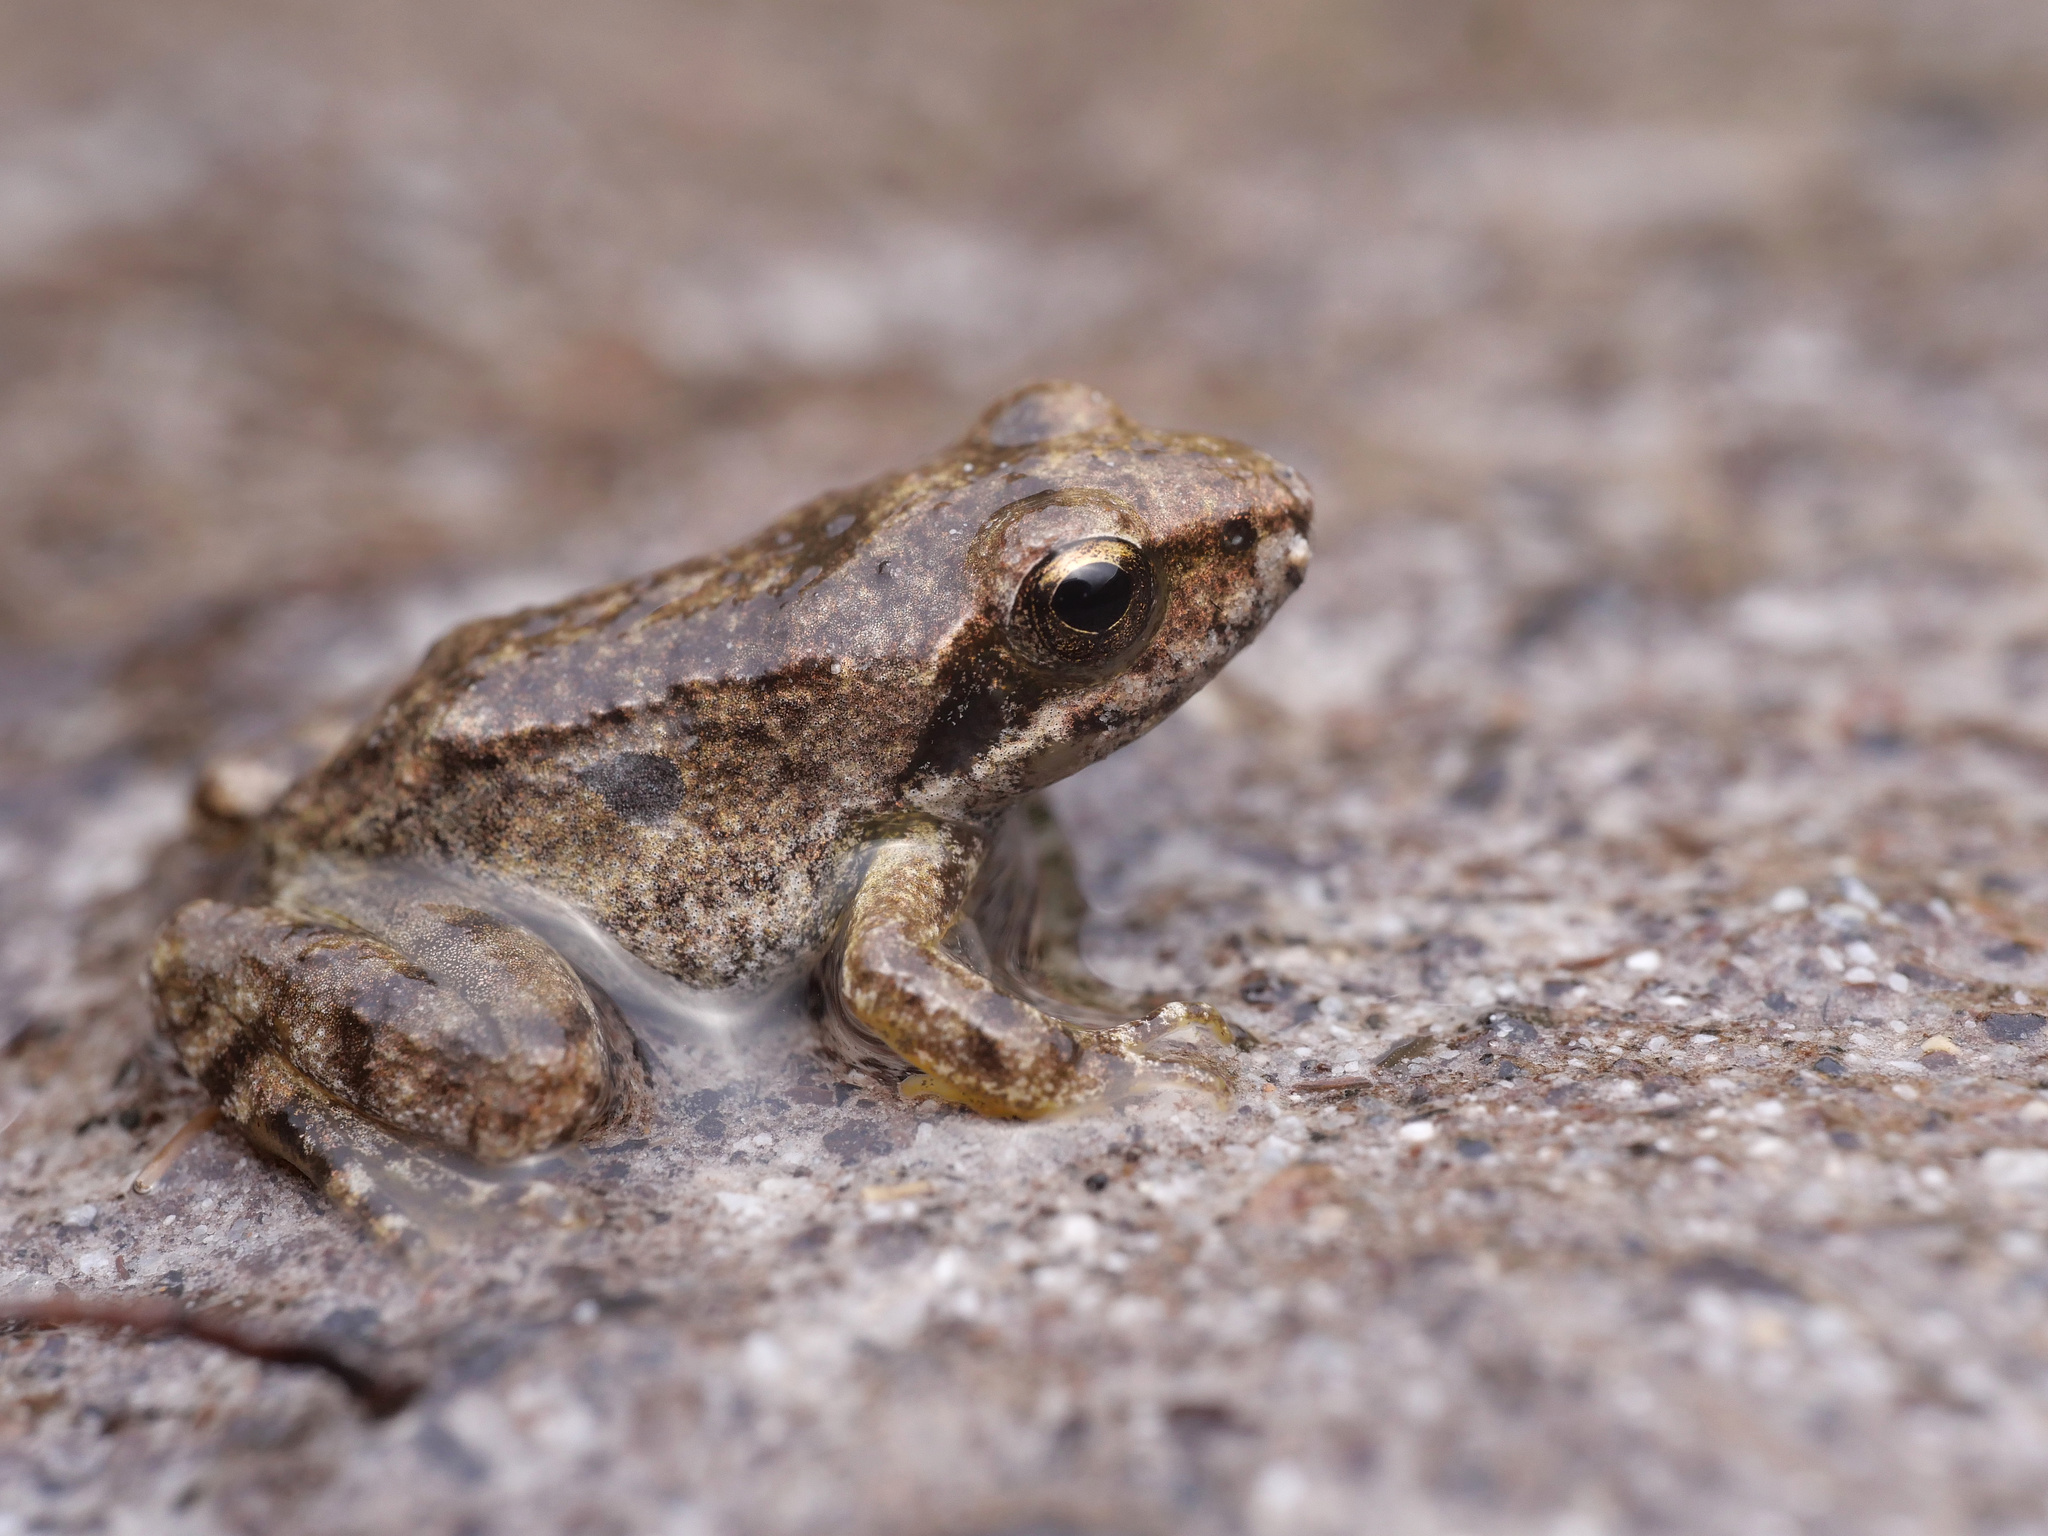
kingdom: Animalia
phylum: Chordata
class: Amphibia
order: Anura
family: Ranidae
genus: Rana
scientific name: Rana graeca
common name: Greek stream frog
